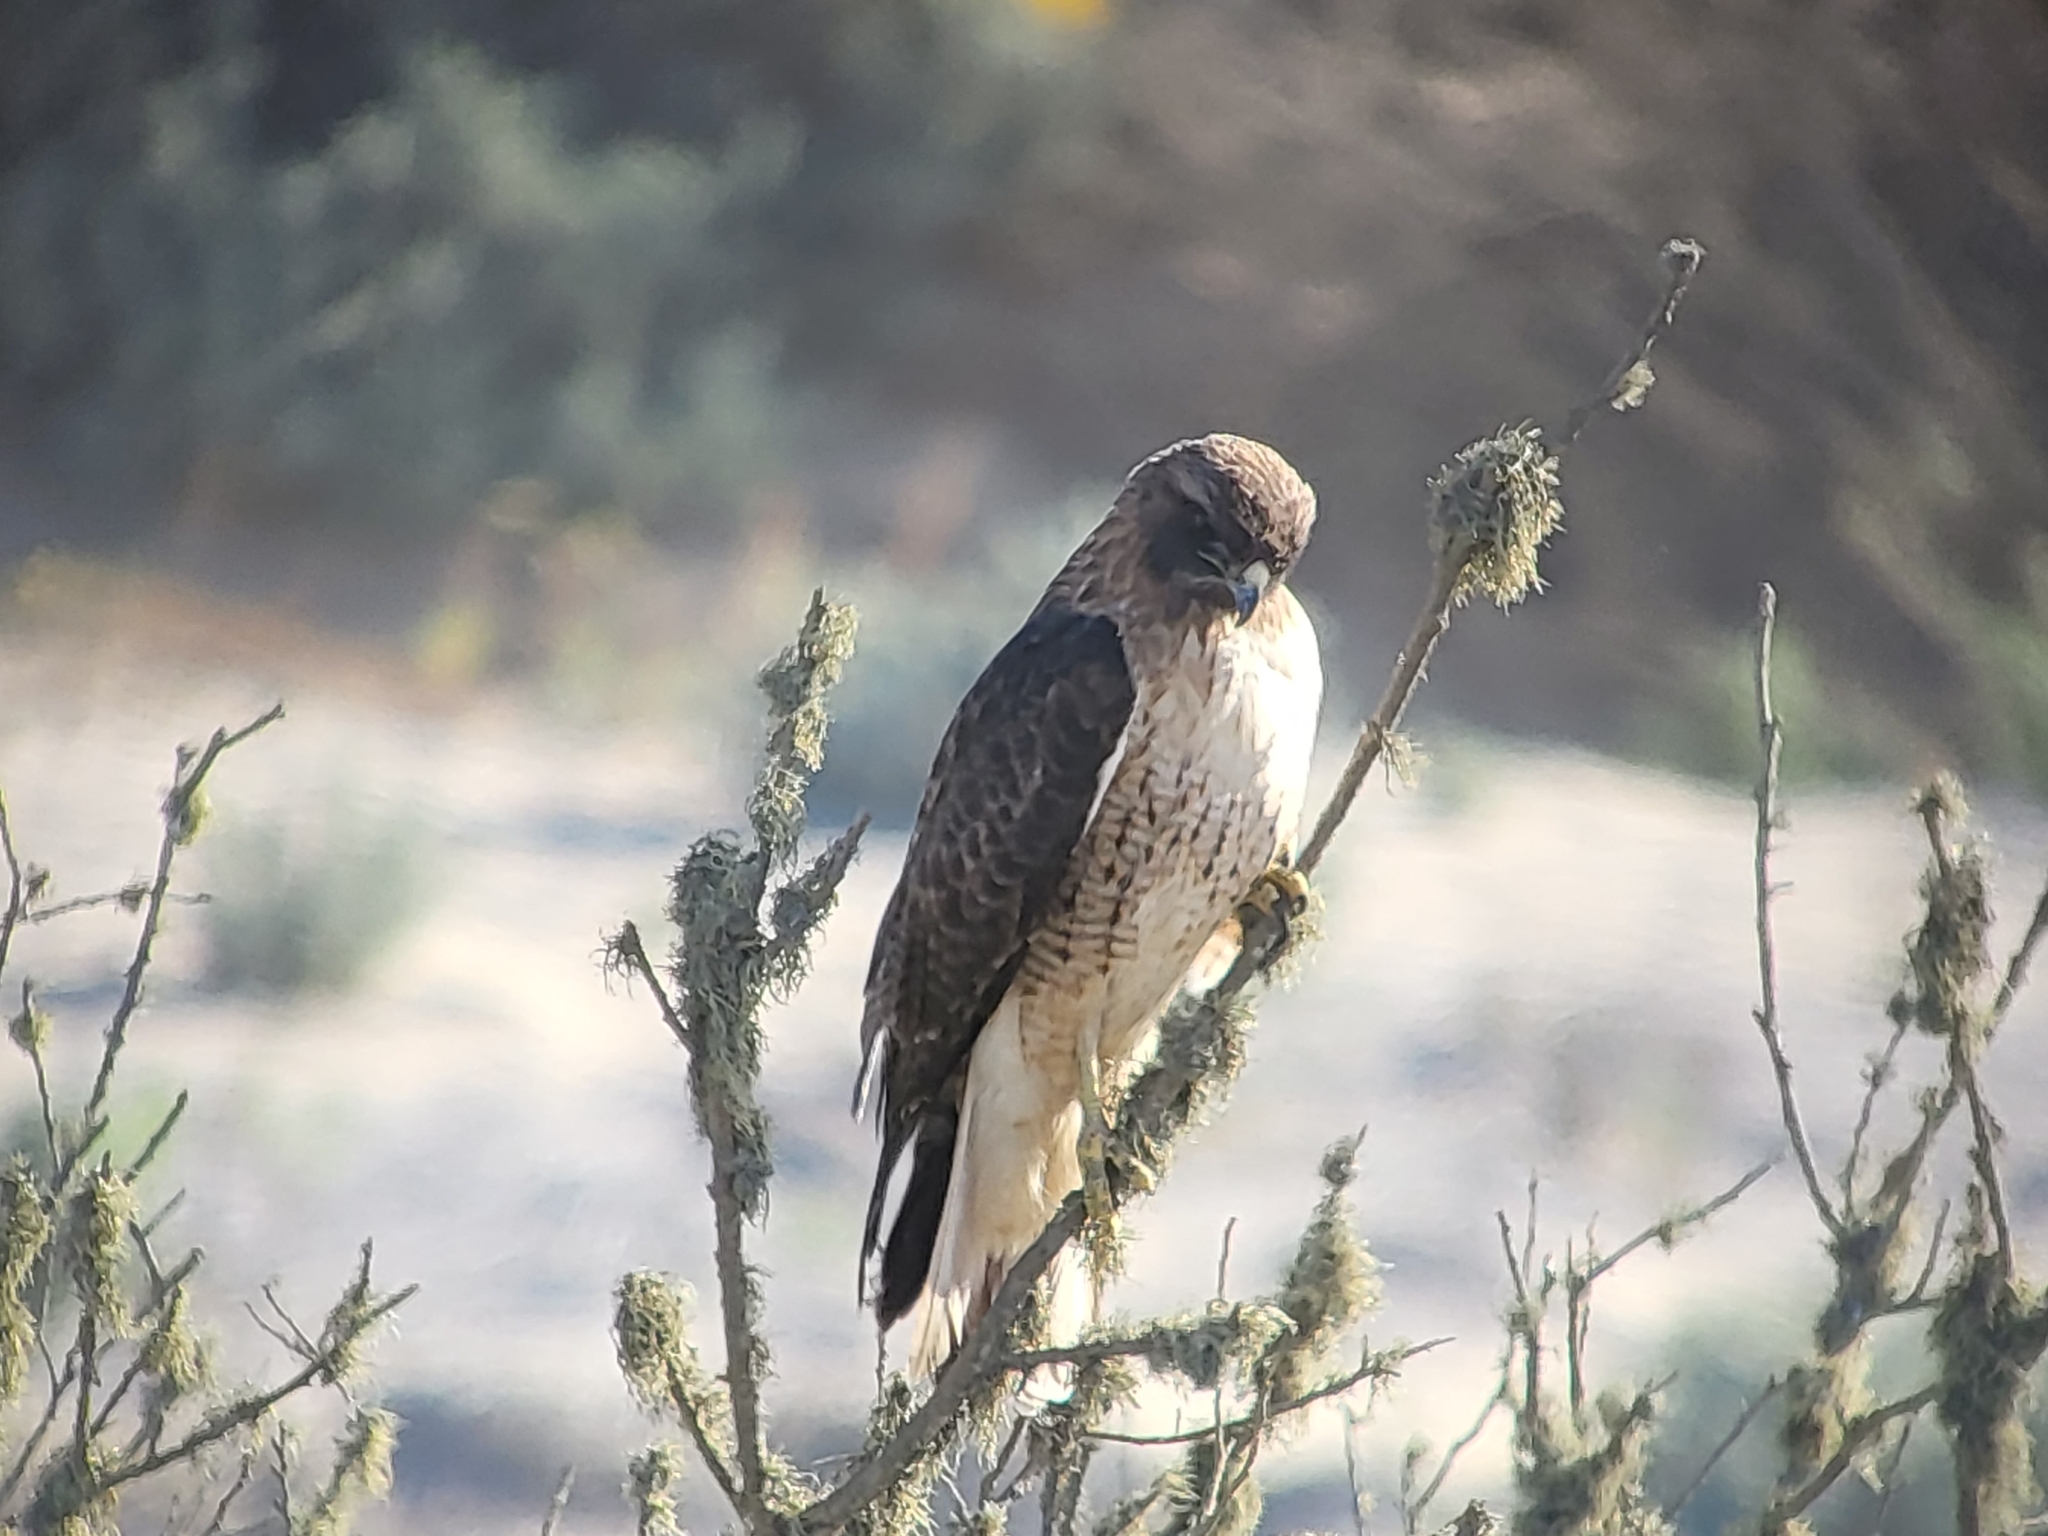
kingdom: Animalia
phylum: Chordata
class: Aves
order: Accipitriformes
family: Accipitridae
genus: Buteo
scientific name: Buteo jamaicensis
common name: Red-tailed hawk
